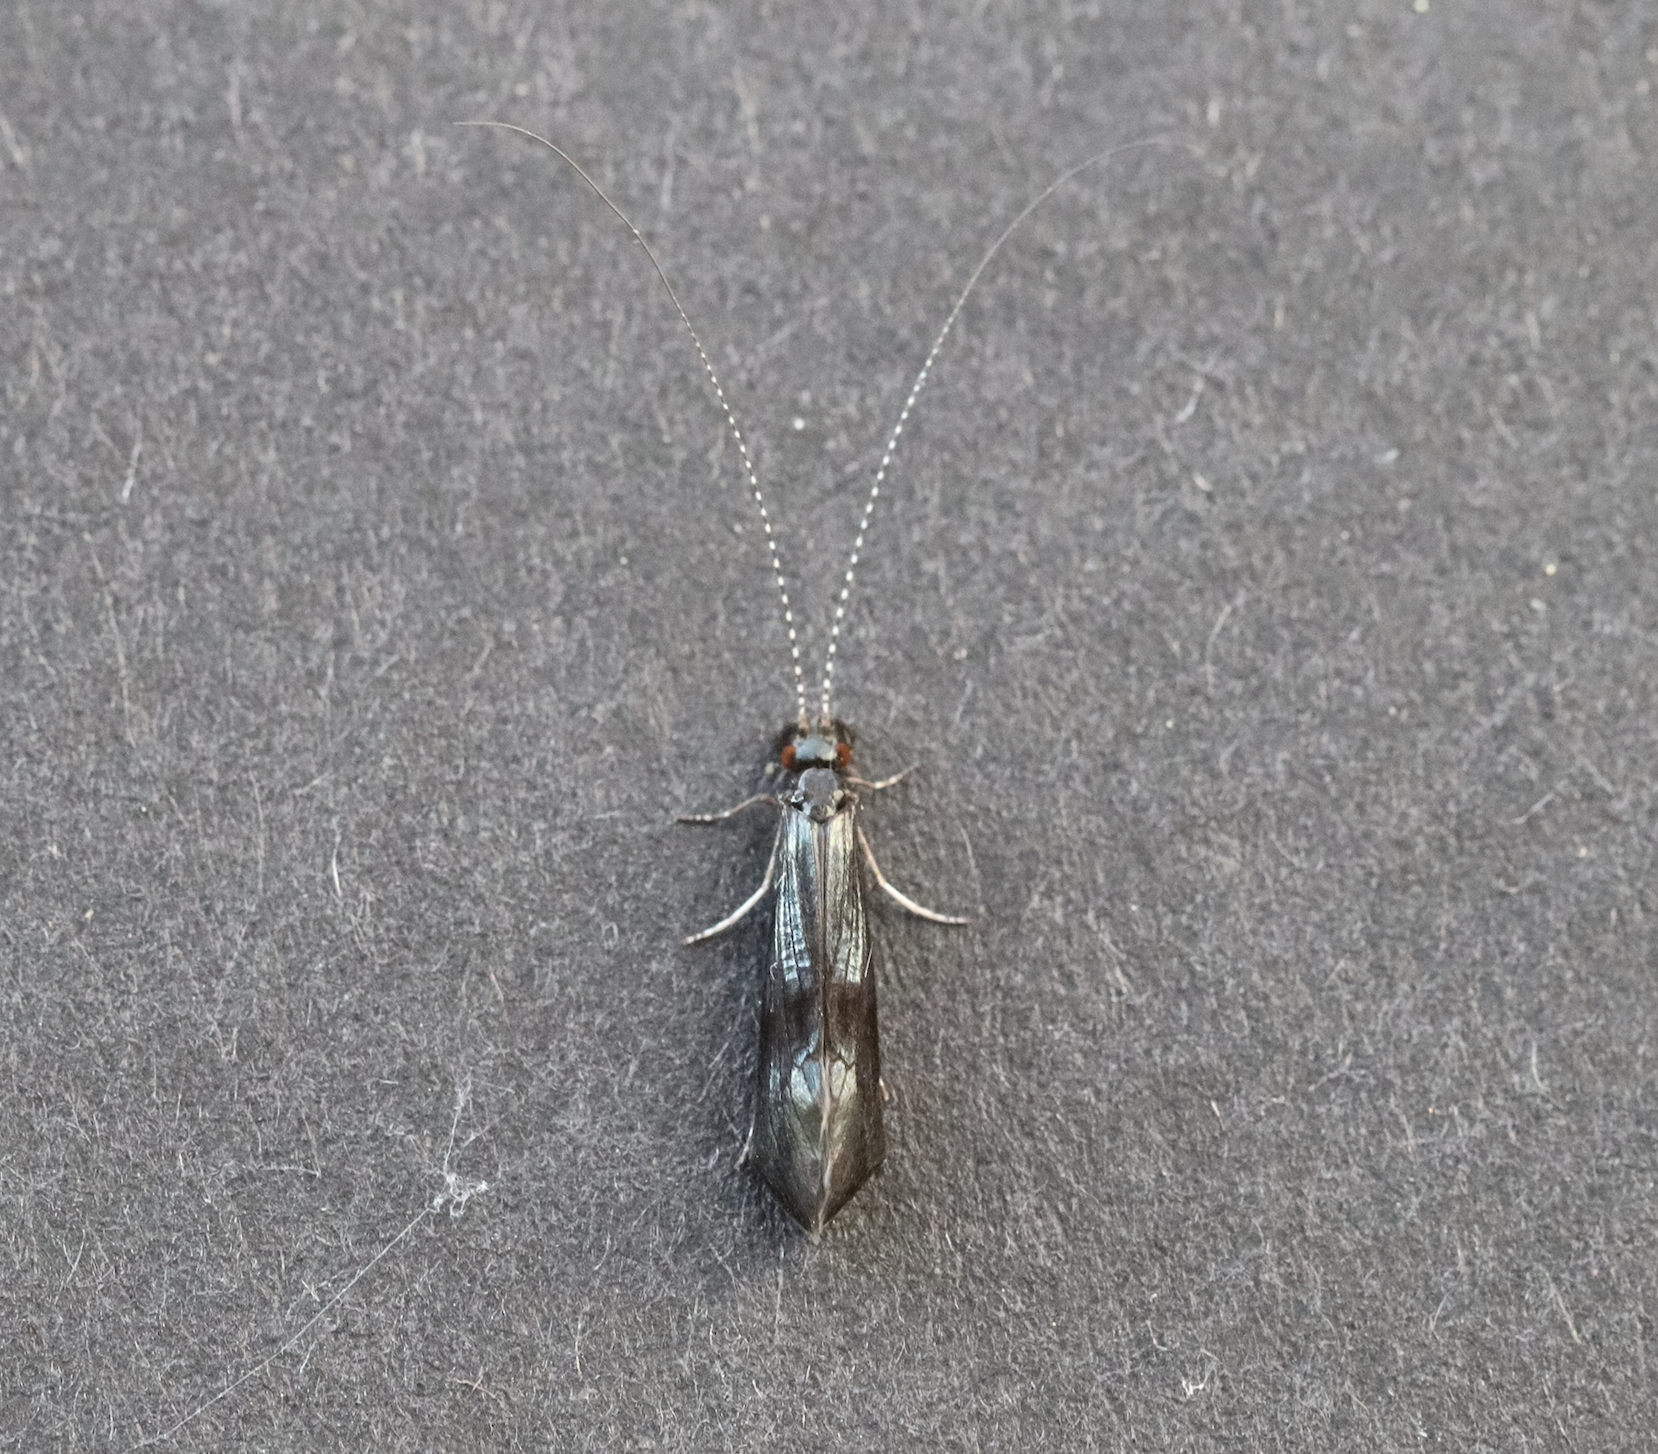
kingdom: Animalia
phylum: Arthropoda
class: Insecta
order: Trichoptera
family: Leptoceridae
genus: Mystacides
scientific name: Mystacides azureus
